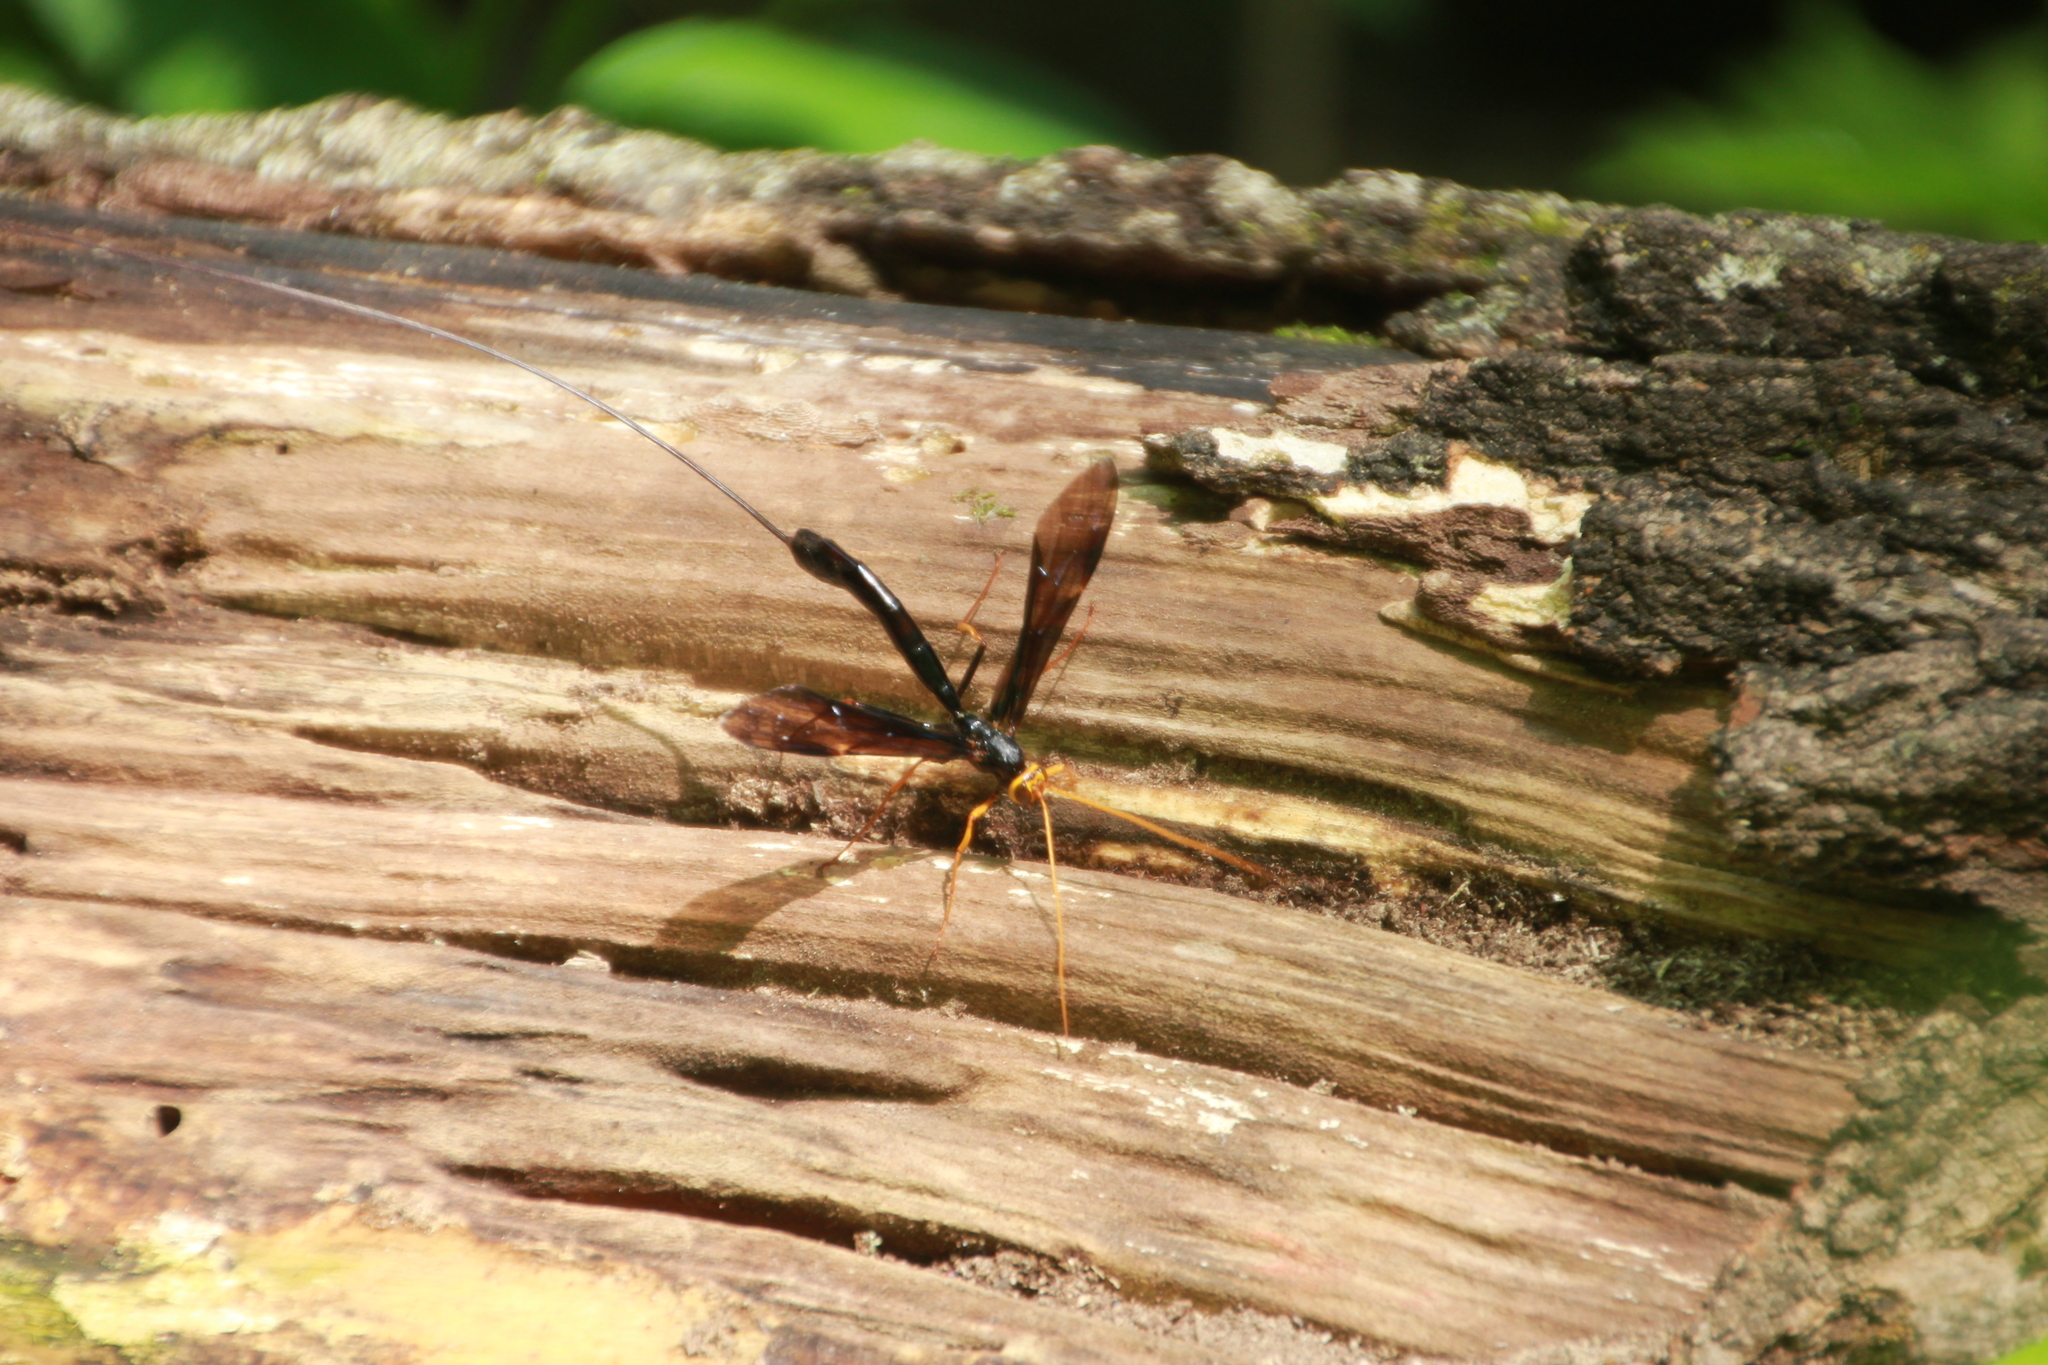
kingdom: Animalia
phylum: Arthropoda
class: Insecta
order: Hymenoptera
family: Ichneumonidae
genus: Megarhyssa
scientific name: Megarhyssa atrata
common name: Black giant ichneumonid wasp
